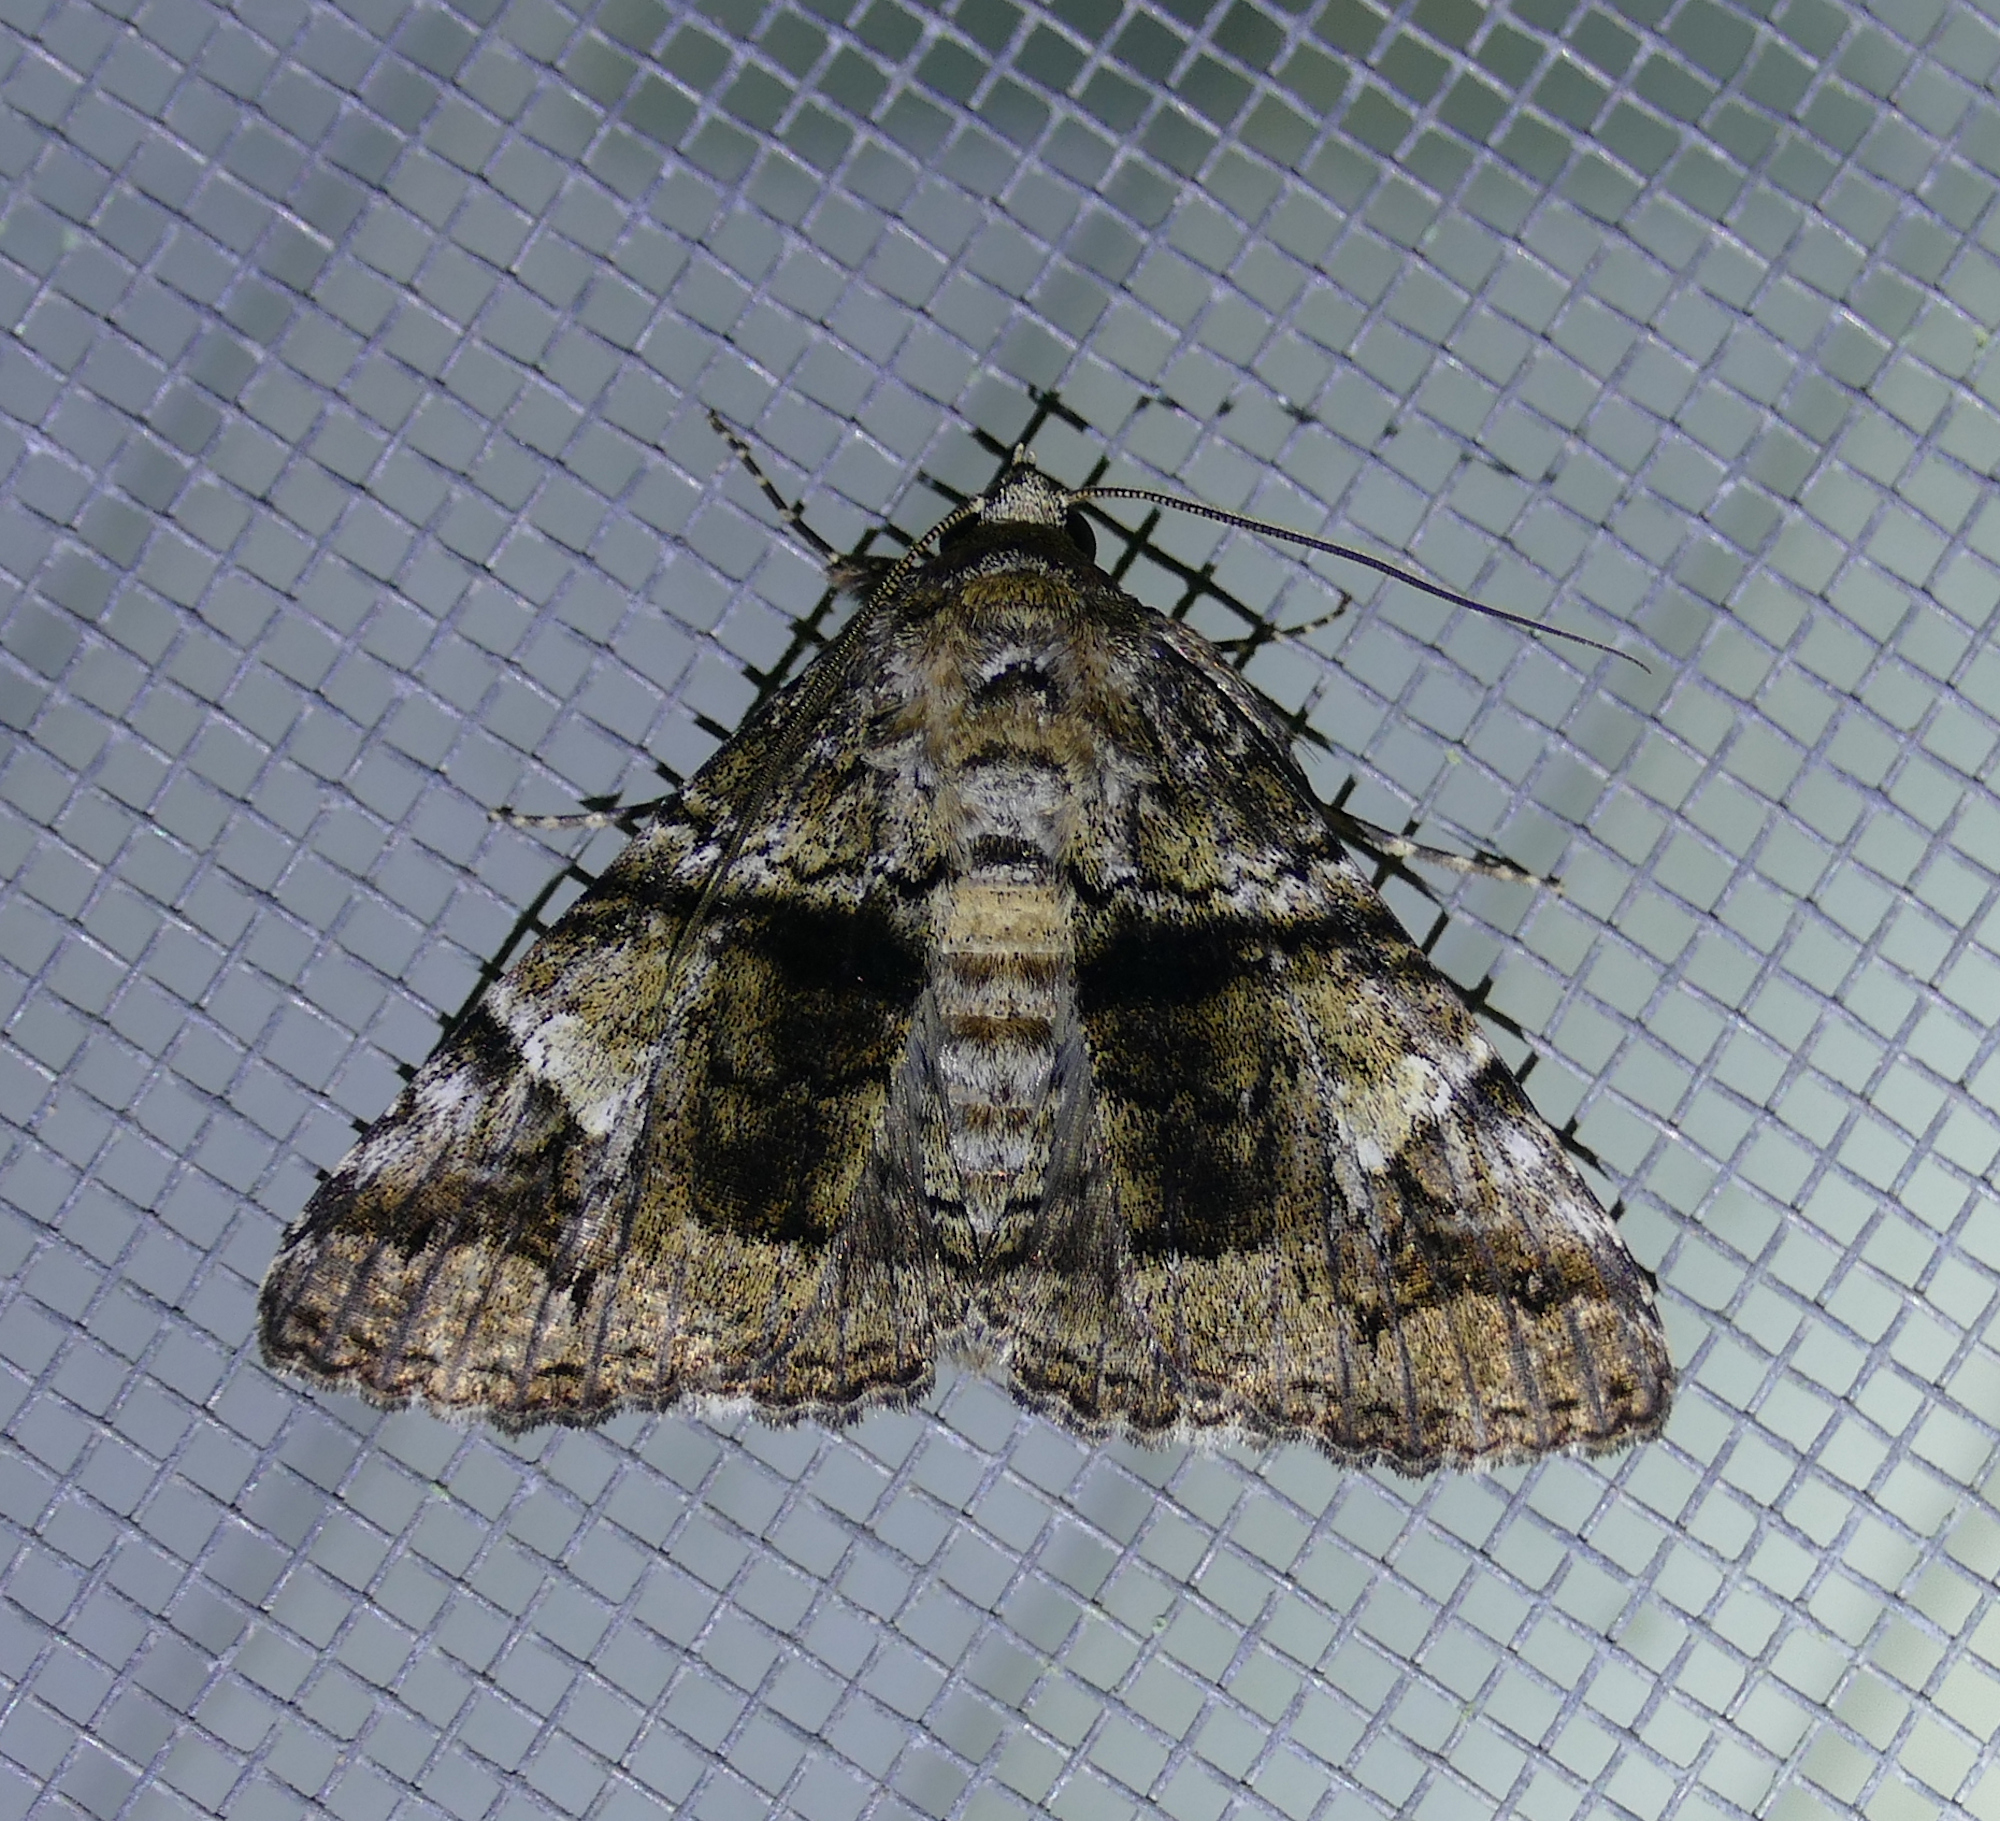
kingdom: Animalia
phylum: Arthropoda
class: Insecta
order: Lepidoptera
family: Erebidae
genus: Metria
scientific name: Metria amella
